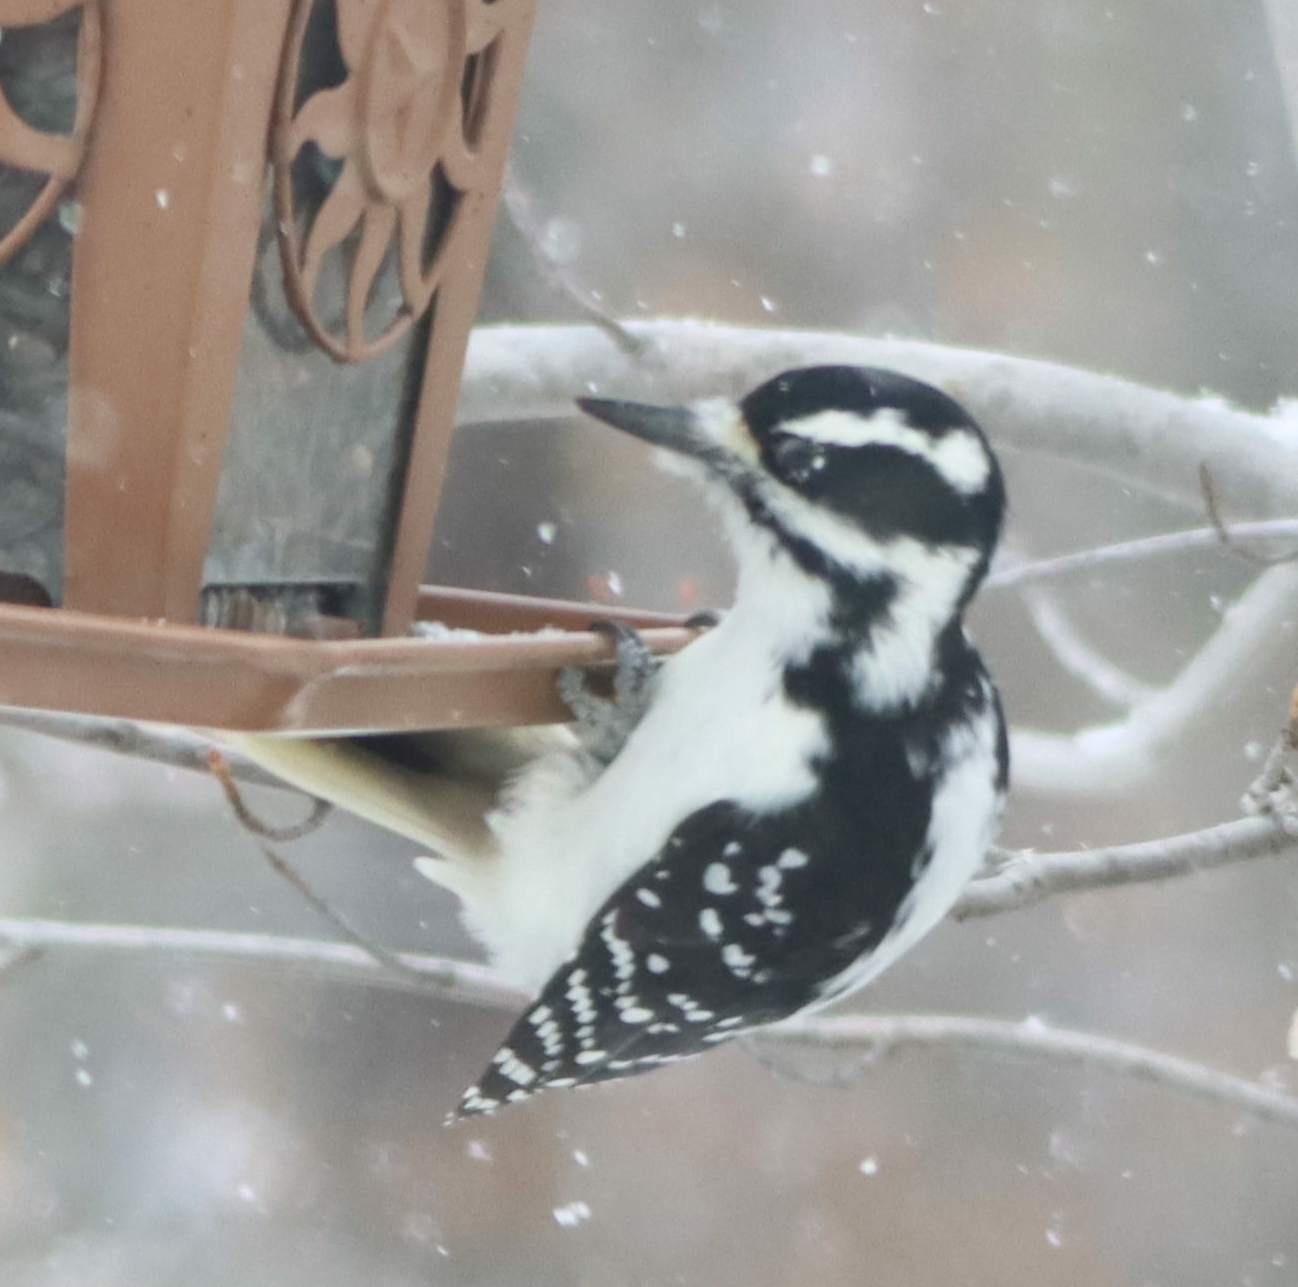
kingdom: Animalia
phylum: Chordata
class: Aves
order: Piciformes
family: Picidae
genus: Leuconotopicus
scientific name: Leuconotopicus villosus
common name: Hairy woodpecker
